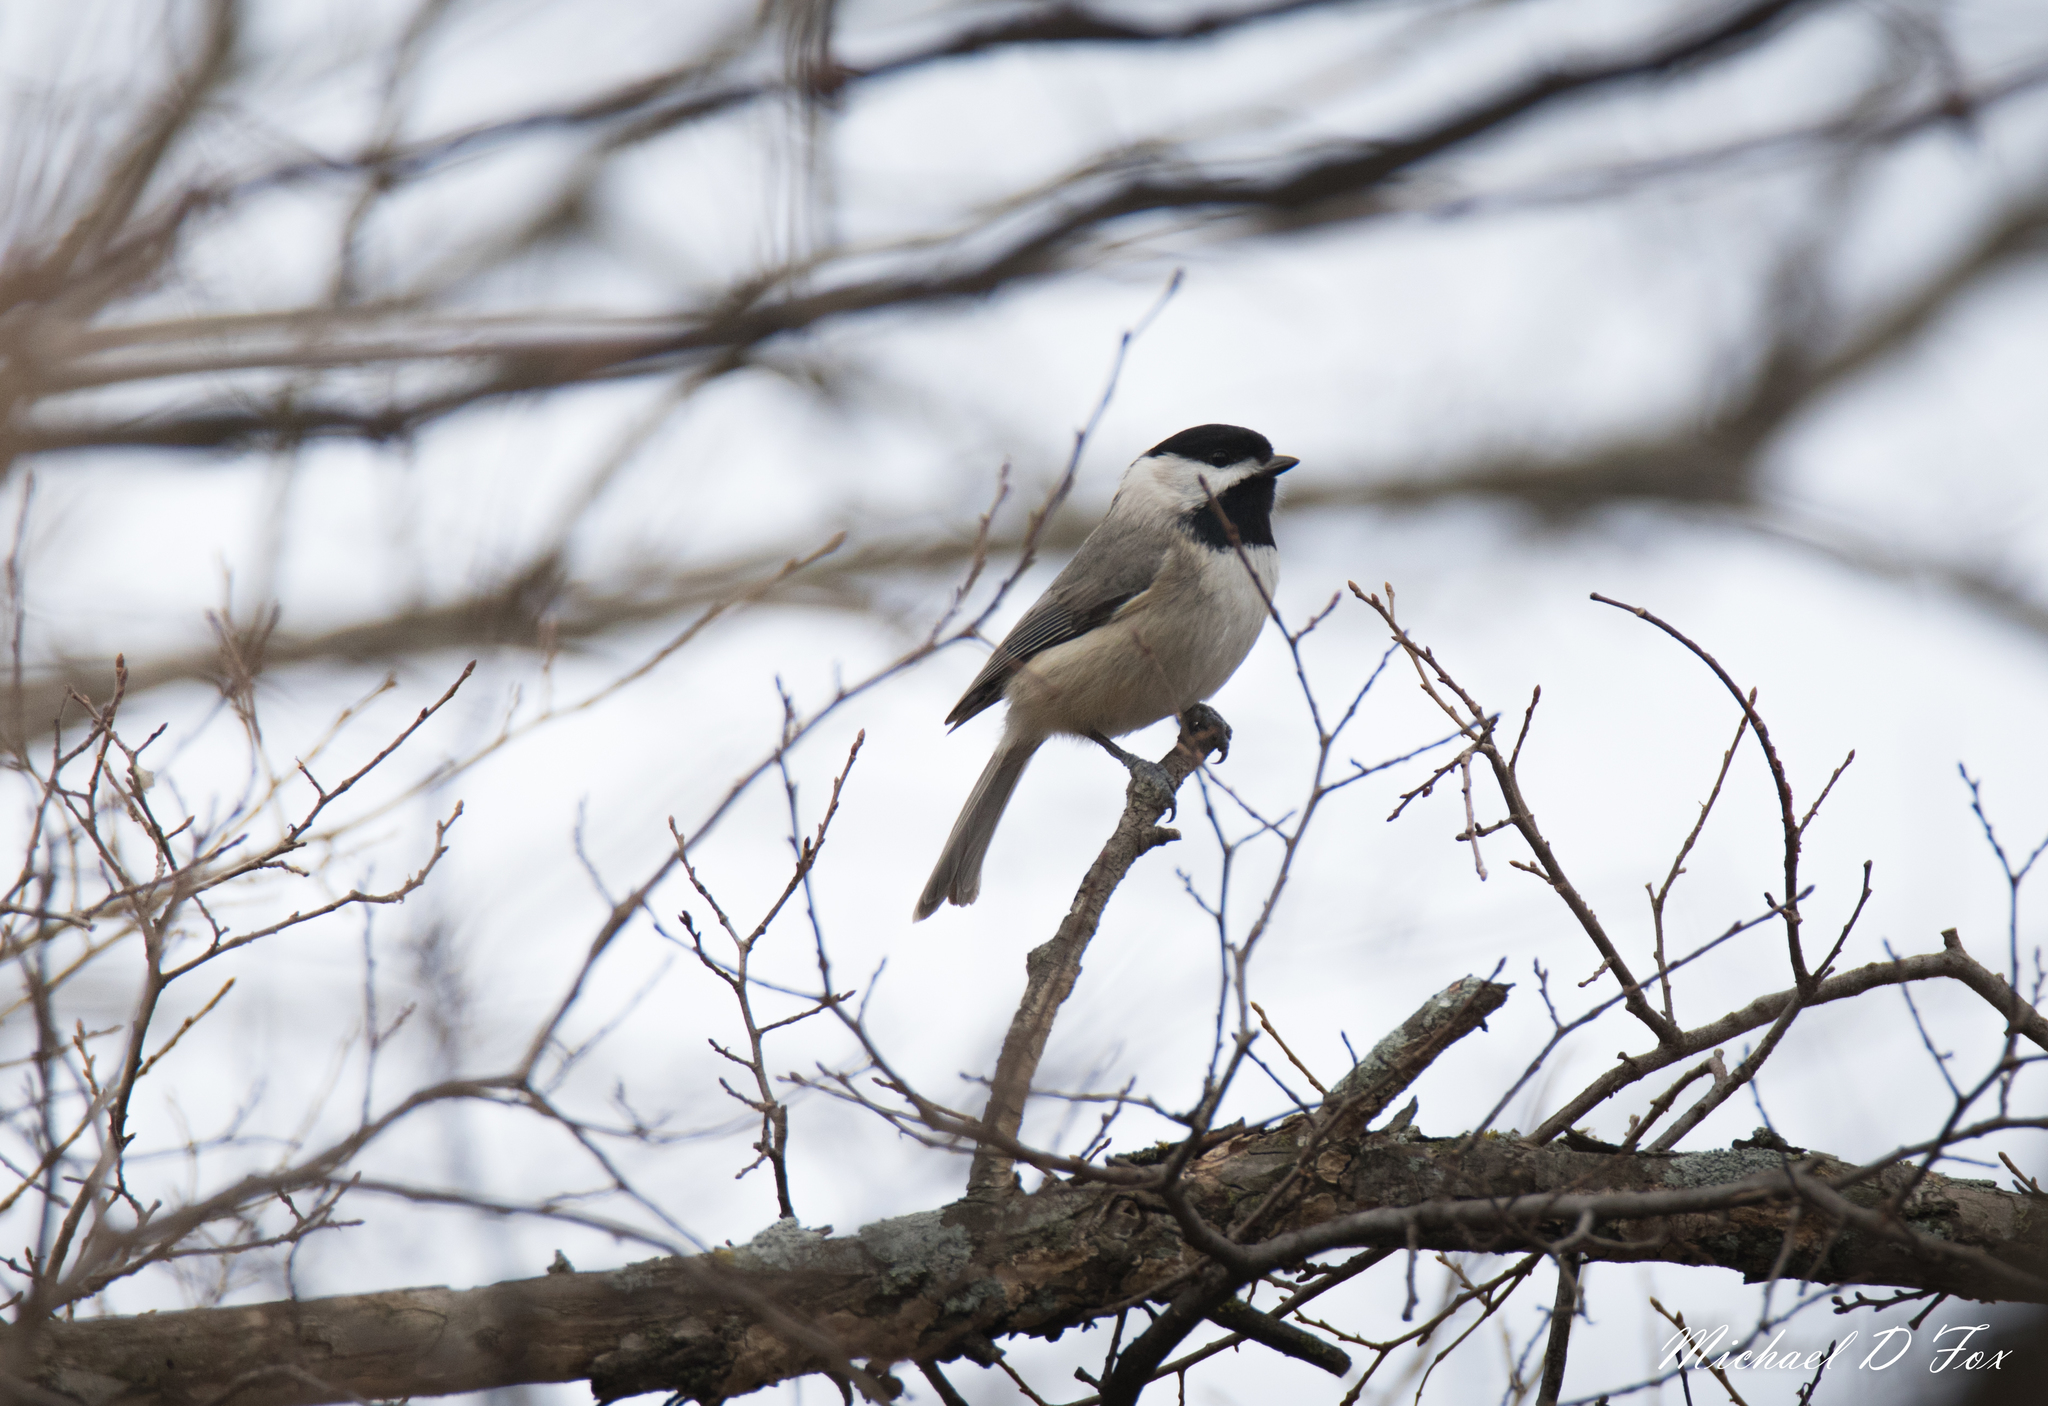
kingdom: Animalia
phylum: Chordata
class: Aves
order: Passeriformes
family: Paridae
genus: Poecile
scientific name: Poecile carolinensis
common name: Carolina chickadee
